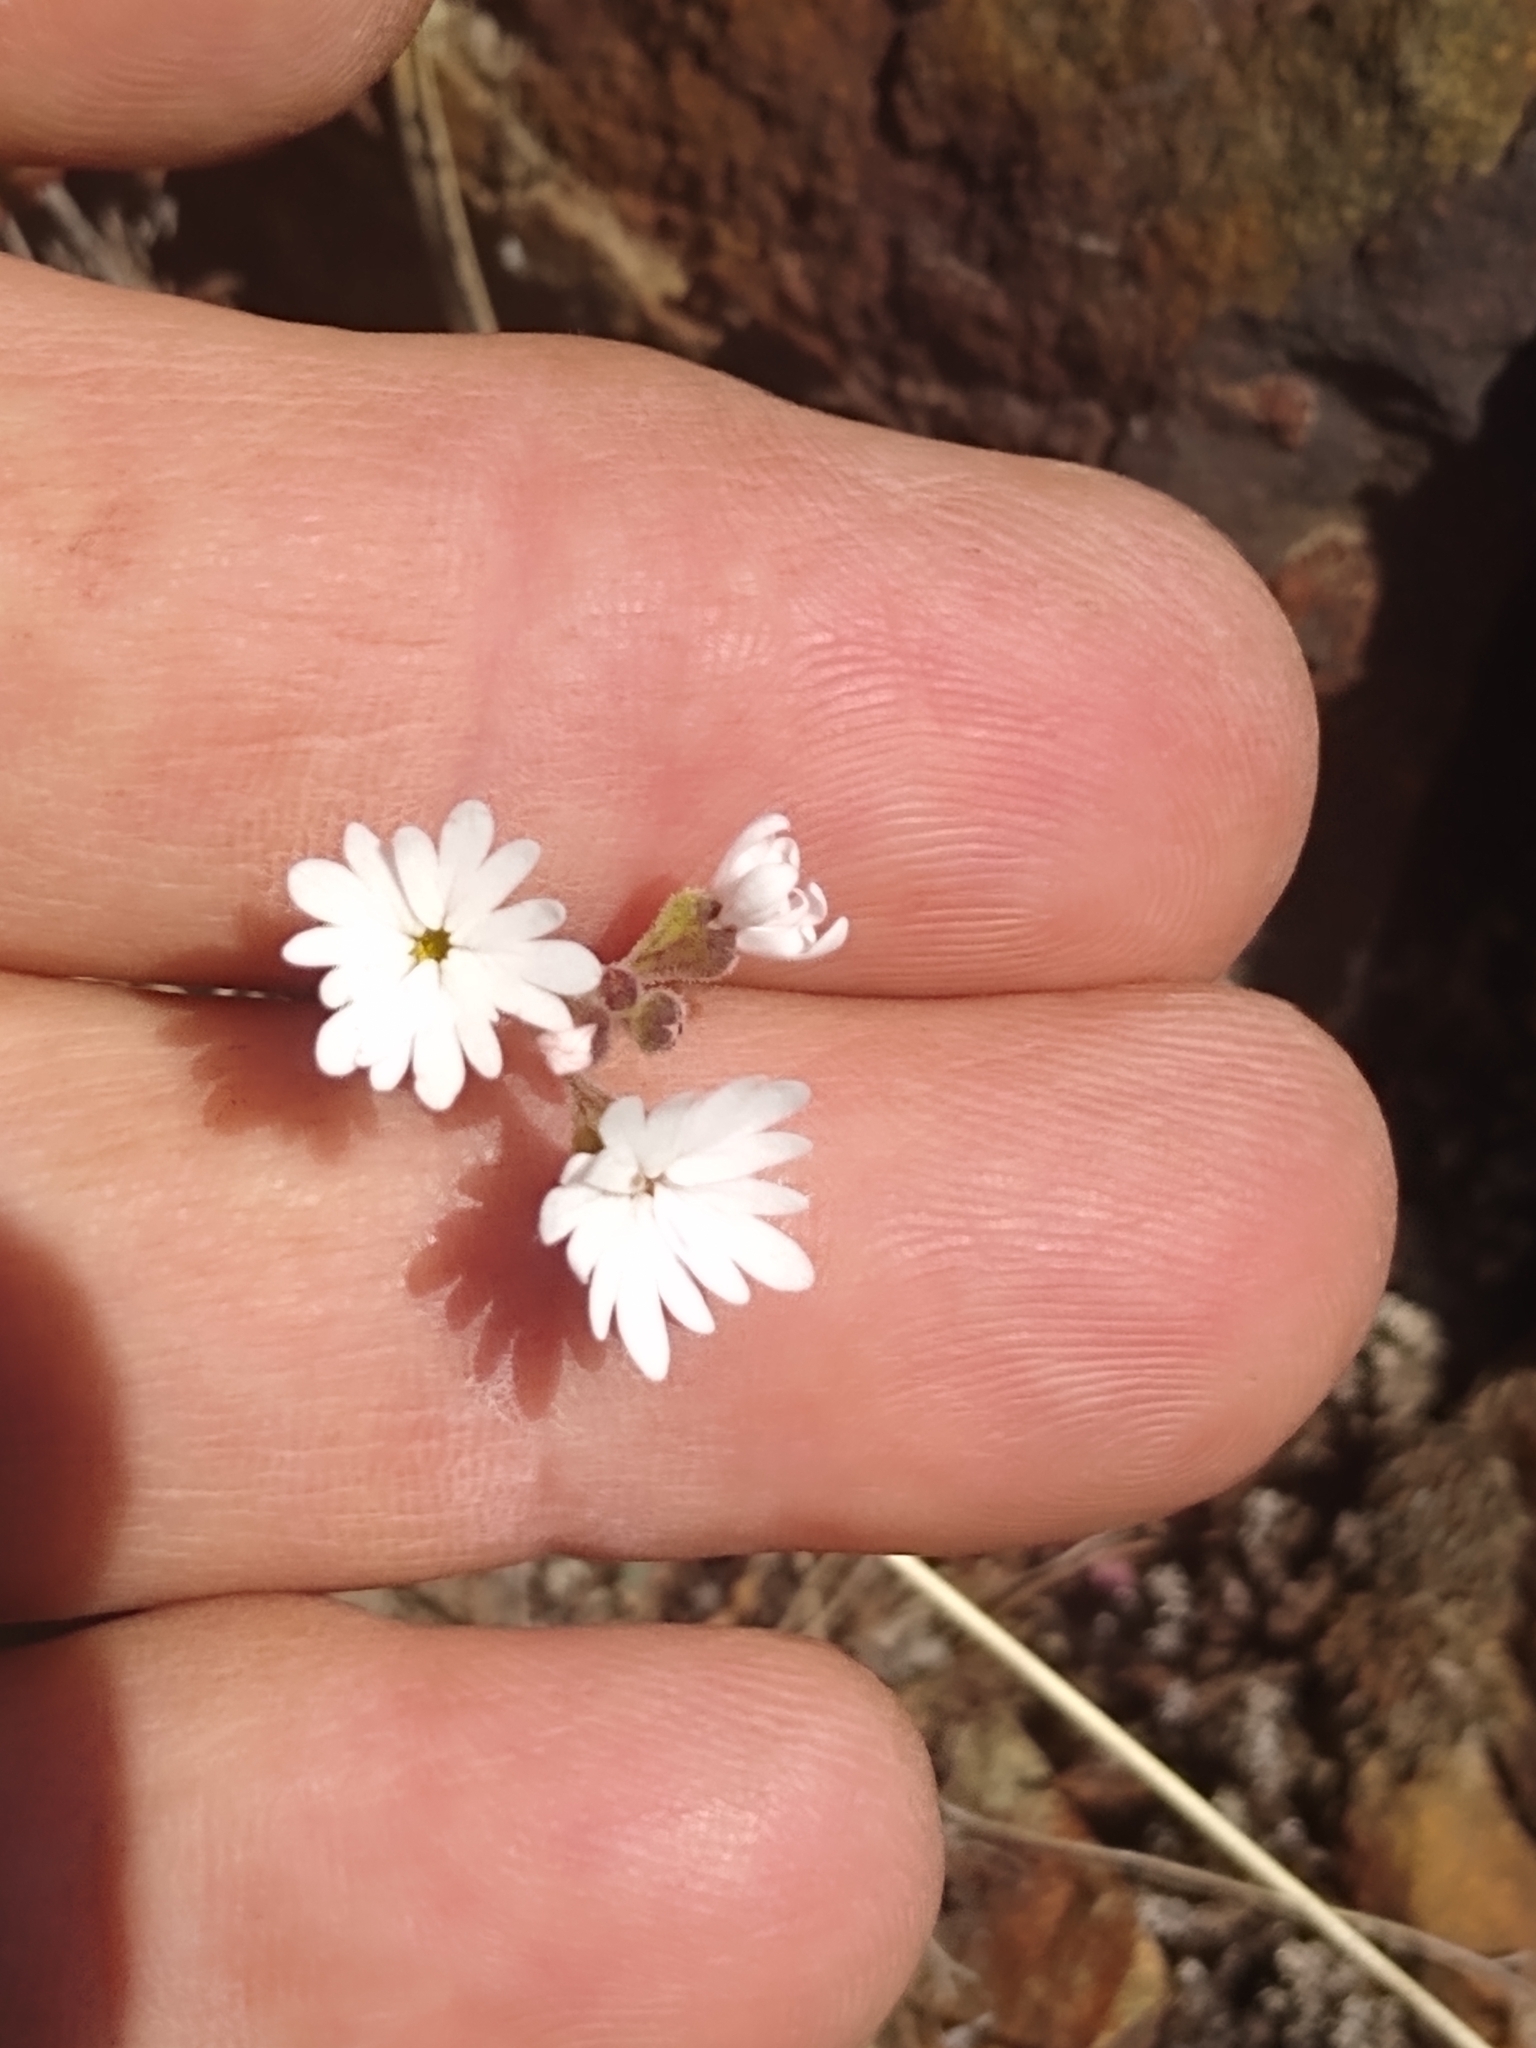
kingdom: Plantae
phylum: Tracheophyta
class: Magnoliopsida
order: Saxifragales
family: Saxifragaceae
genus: Lithophragma
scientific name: Lithophragma parviflorum
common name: Small-flowered fringe-cup
